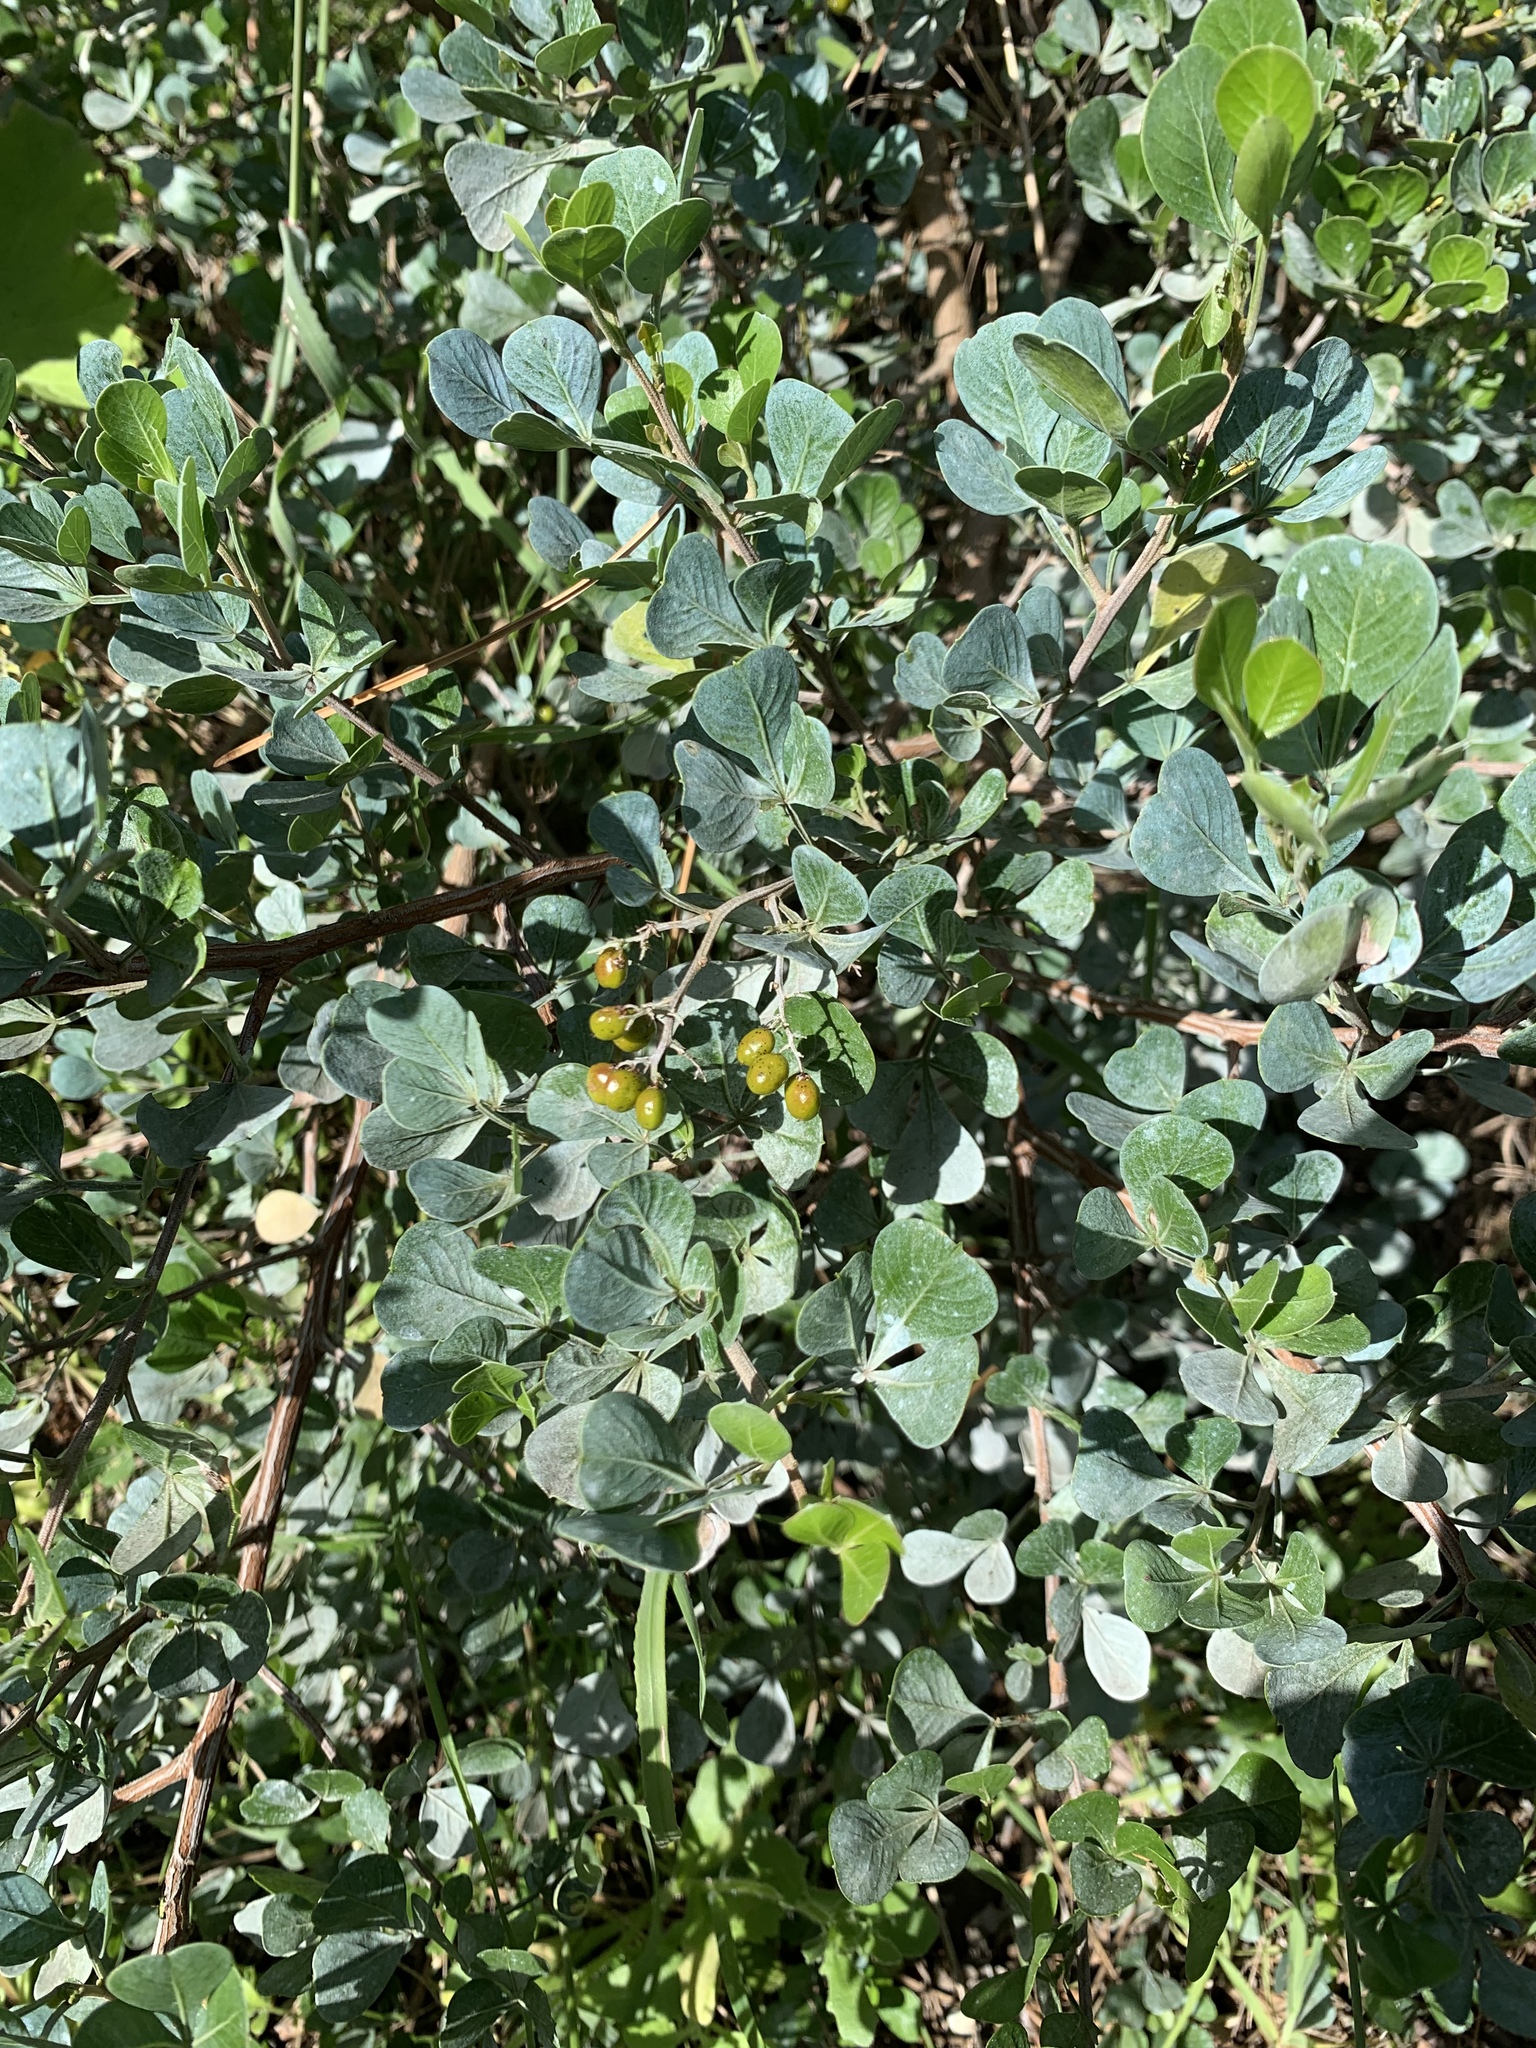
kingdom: Plantae
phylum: Tracheophyta
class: Magnoliopsida
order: Sapindales
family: Anacardiaceae
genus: Searsia
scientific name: Searsia glauca
